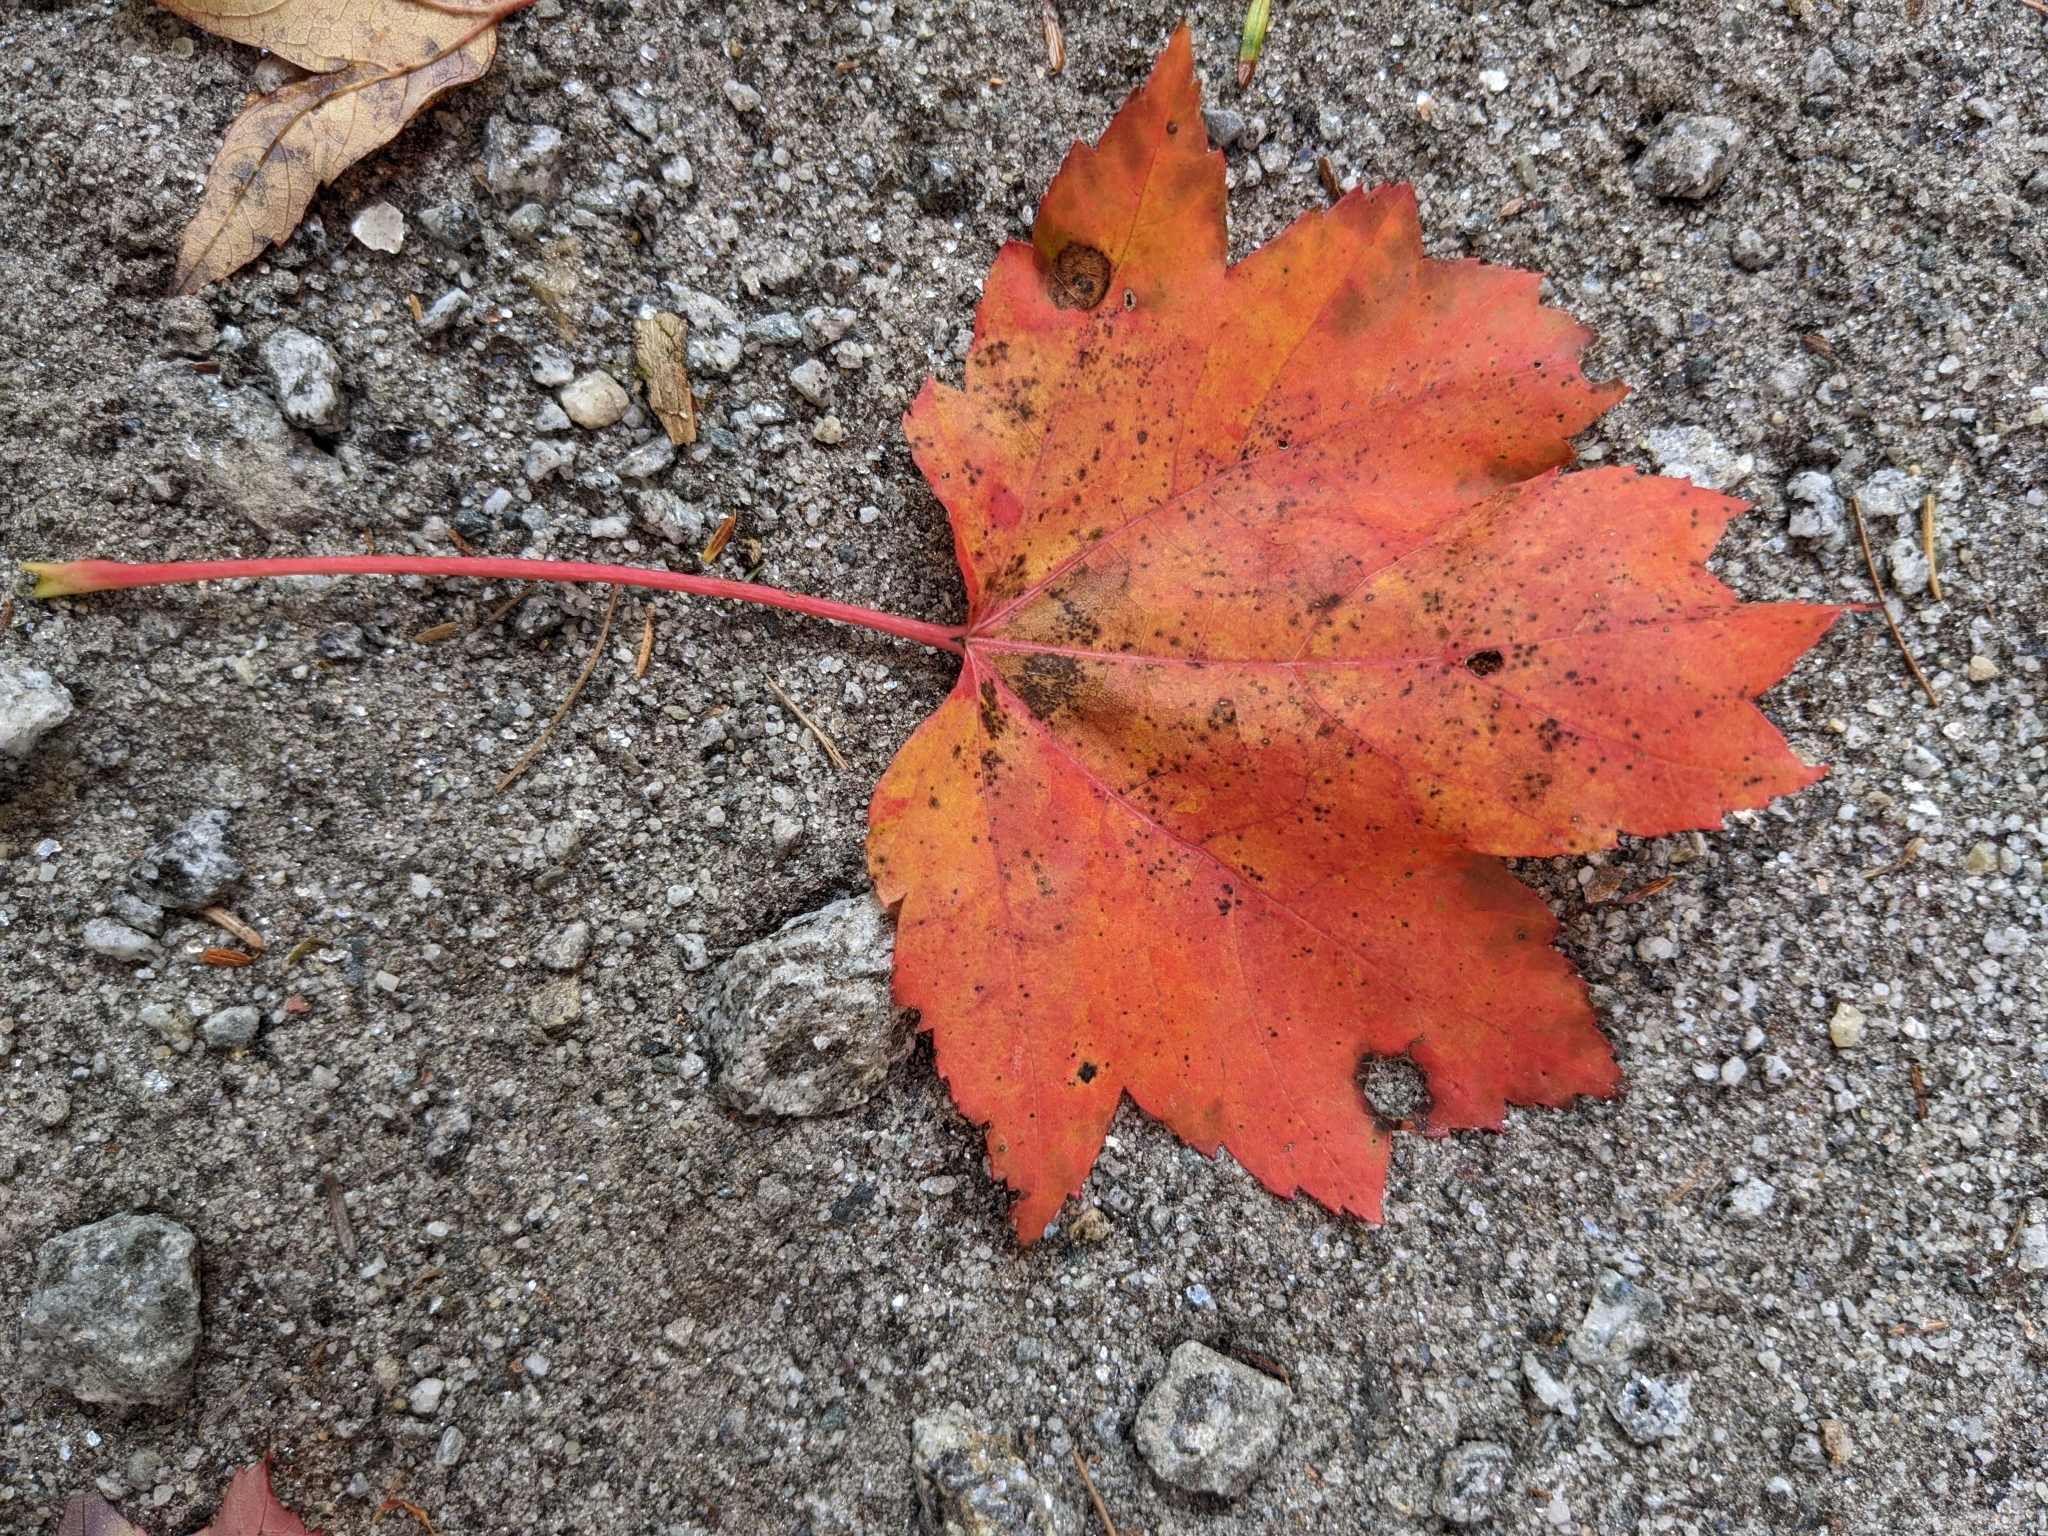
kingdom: Plantae
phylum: Tracheophyta
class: Magnoliopsida
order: Sapindales
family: Sapindaceae
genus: Acer
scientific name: Acer rubrum
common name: Red maple
